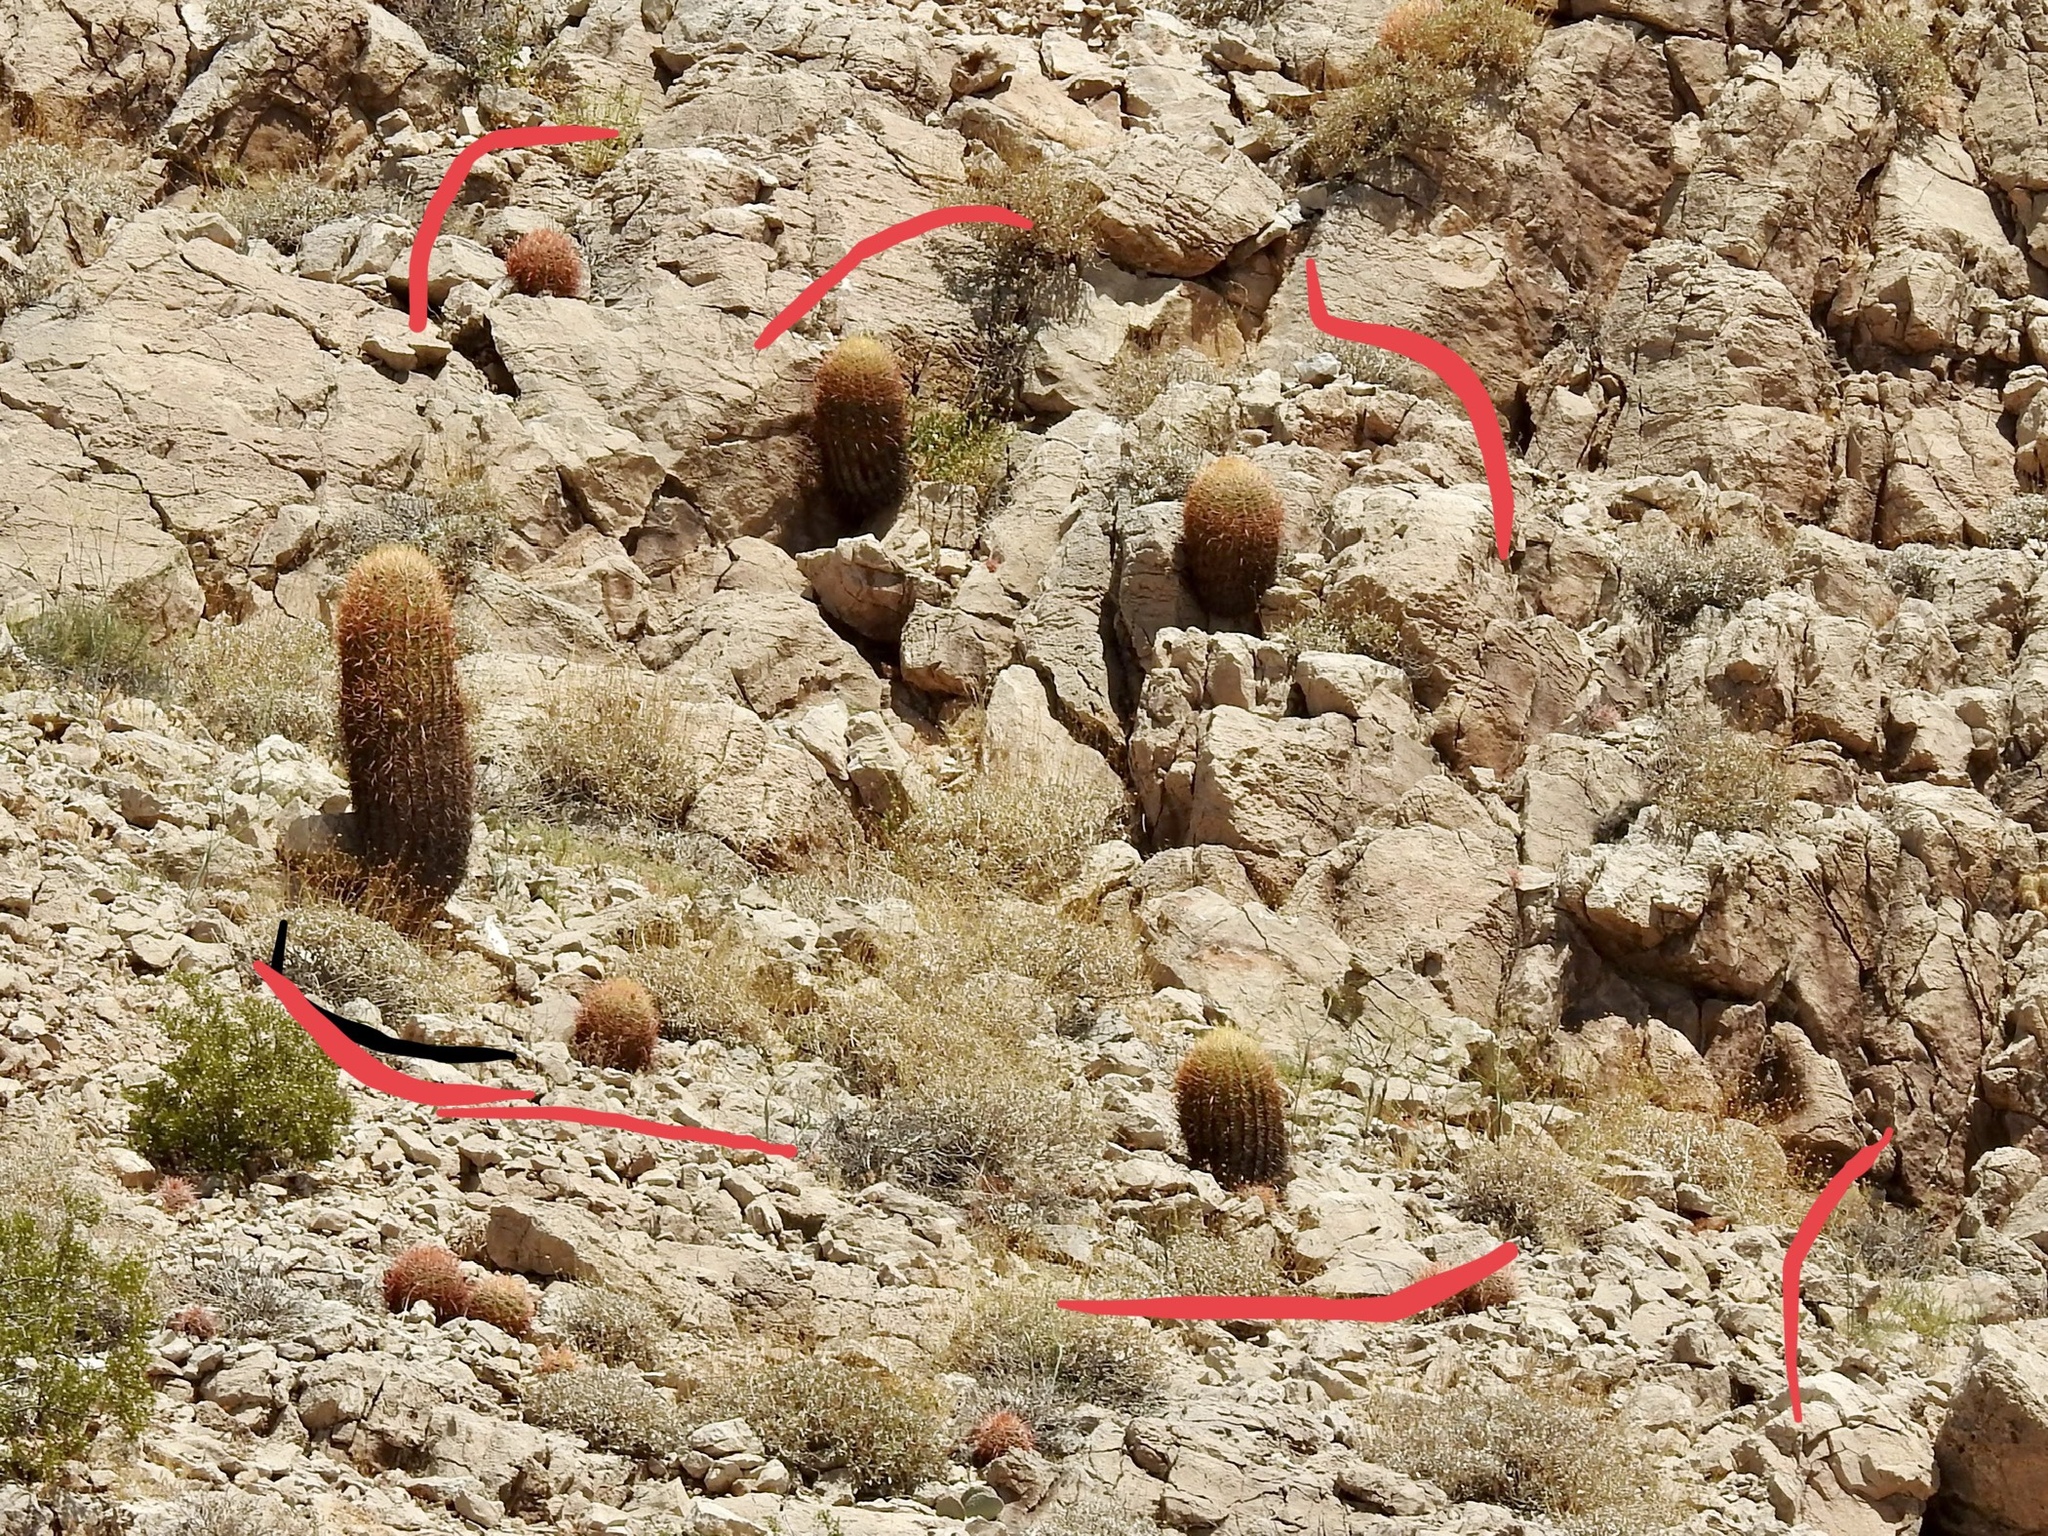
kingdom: Plantae
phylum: Tracheophyta
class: Magnoliopsida
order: Caryophyllales
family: Cactaceae
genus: Ferocactus
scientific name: Ferocactus cylindraceus
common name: California barrel cactus
